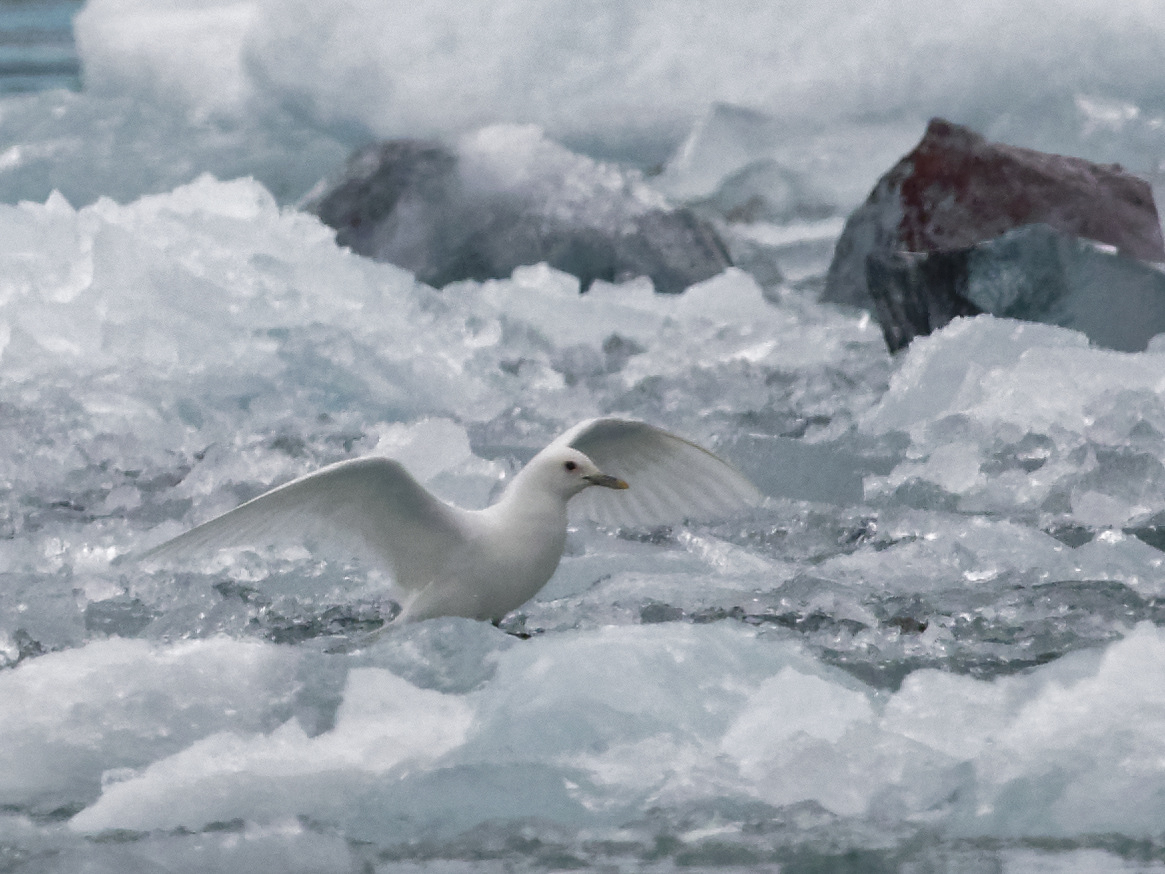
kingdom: Animalia
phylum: Chordata
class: Aves
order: Charadriiformes
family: Laridae
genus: Pagophila
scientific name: Pagophila eburnea
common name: Ivory gull
